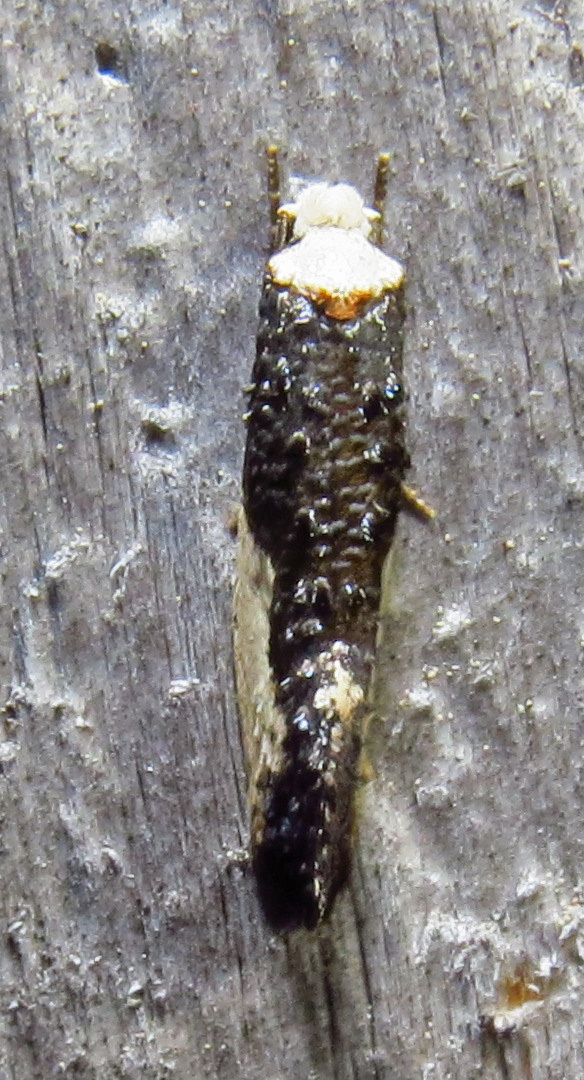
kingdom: Animalia
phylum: Arthropoda
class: Insecta
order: Lepidoptera
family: Tineidae
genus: Monopis
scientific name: Monopis monachella
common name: Moth
